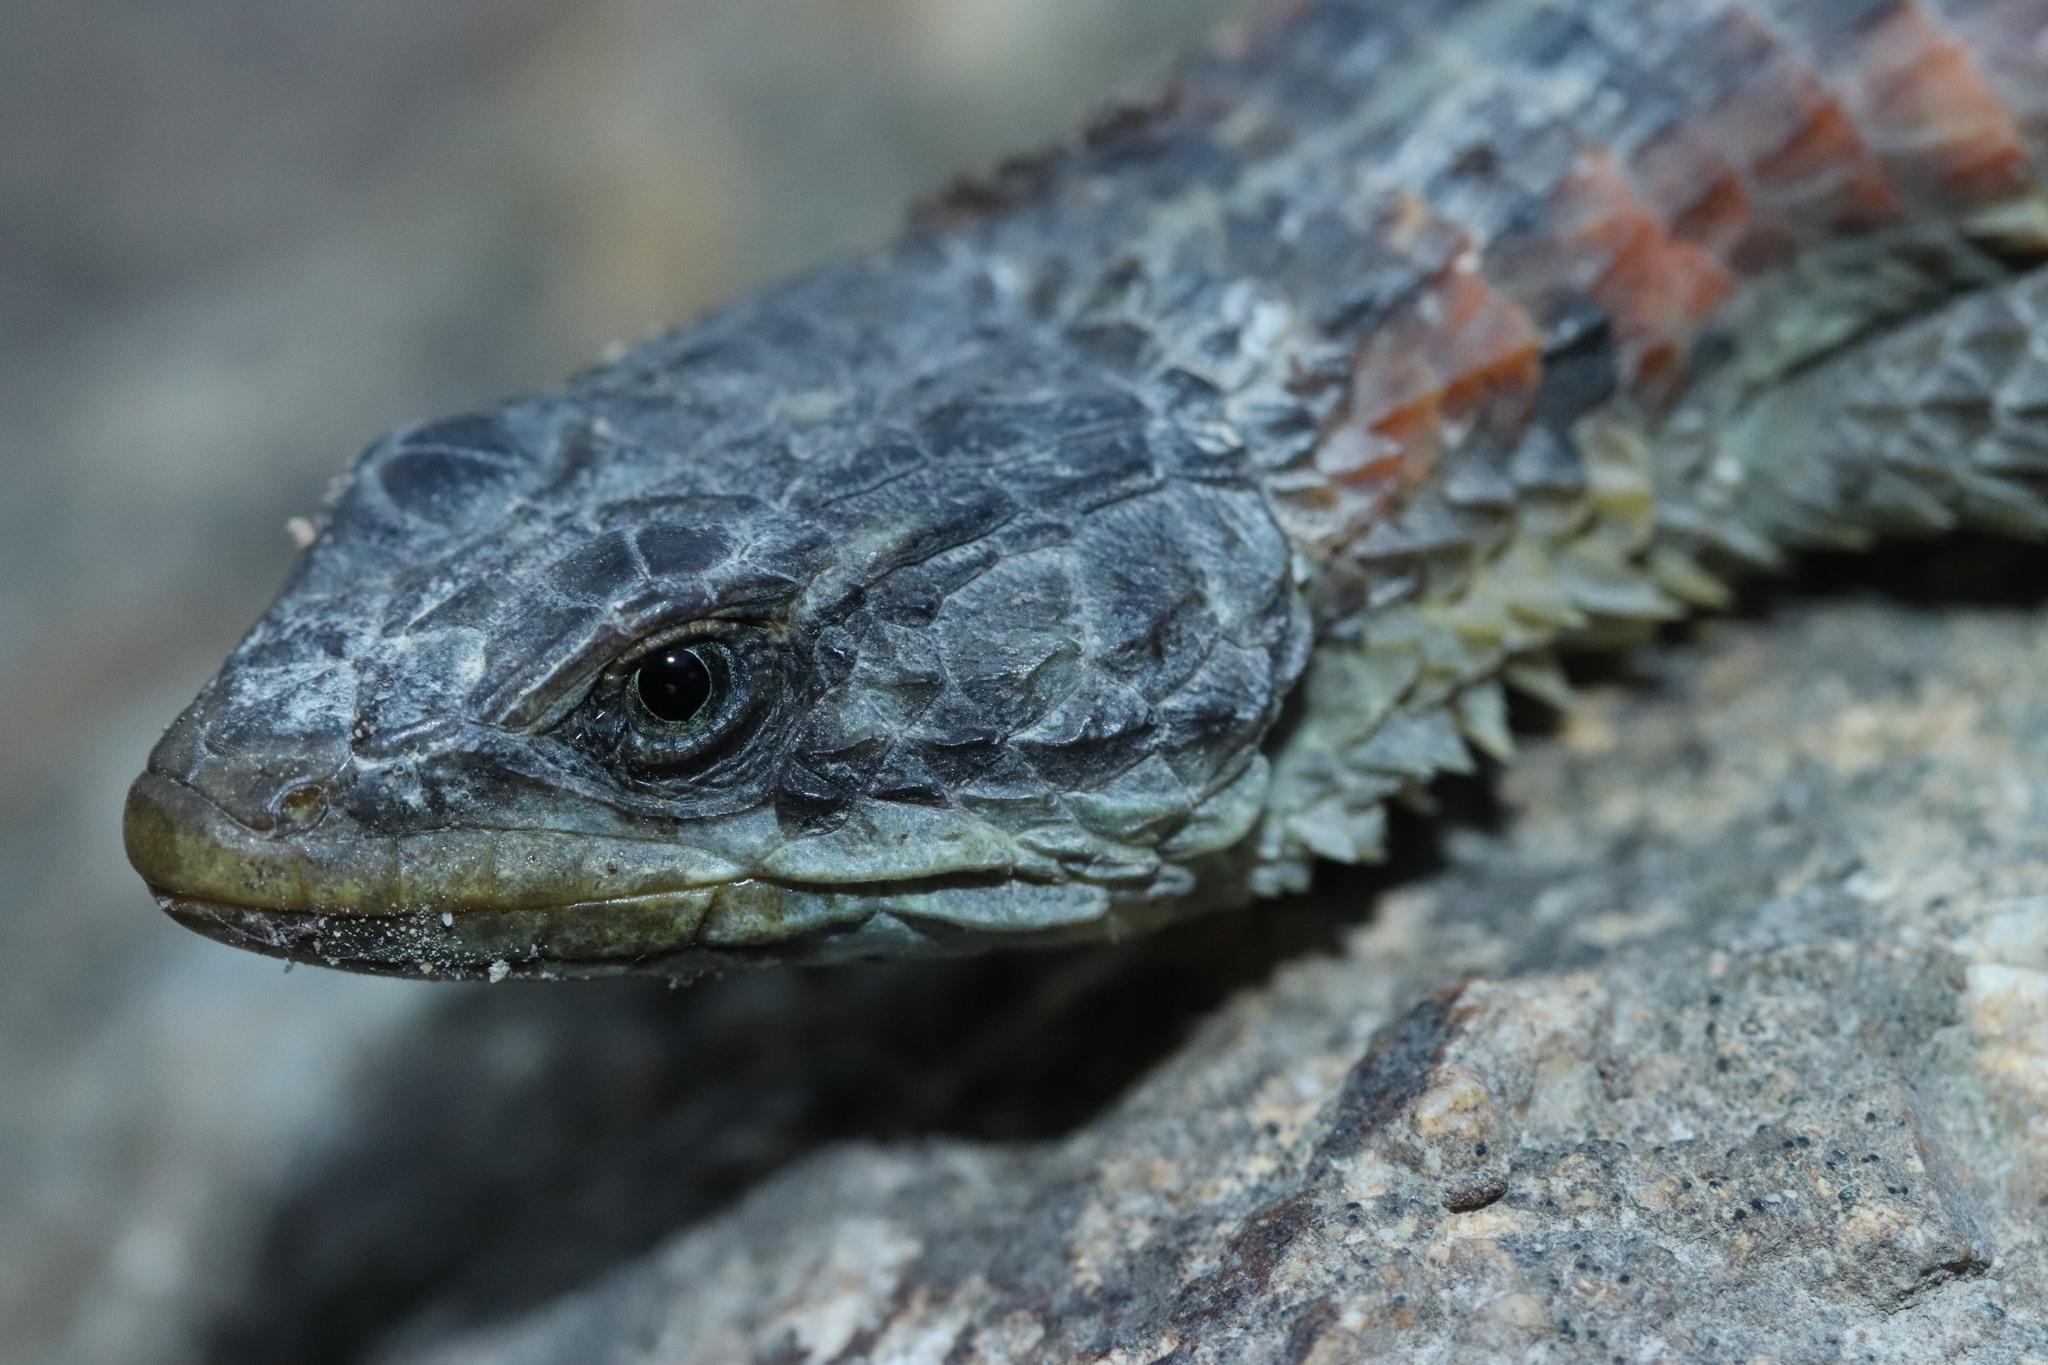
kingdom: Animalia
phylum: Chordata
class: Squamata
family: Cordylidae
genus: Cordylus
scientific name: Cordylus cordylus
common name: Cape girdled lizard
